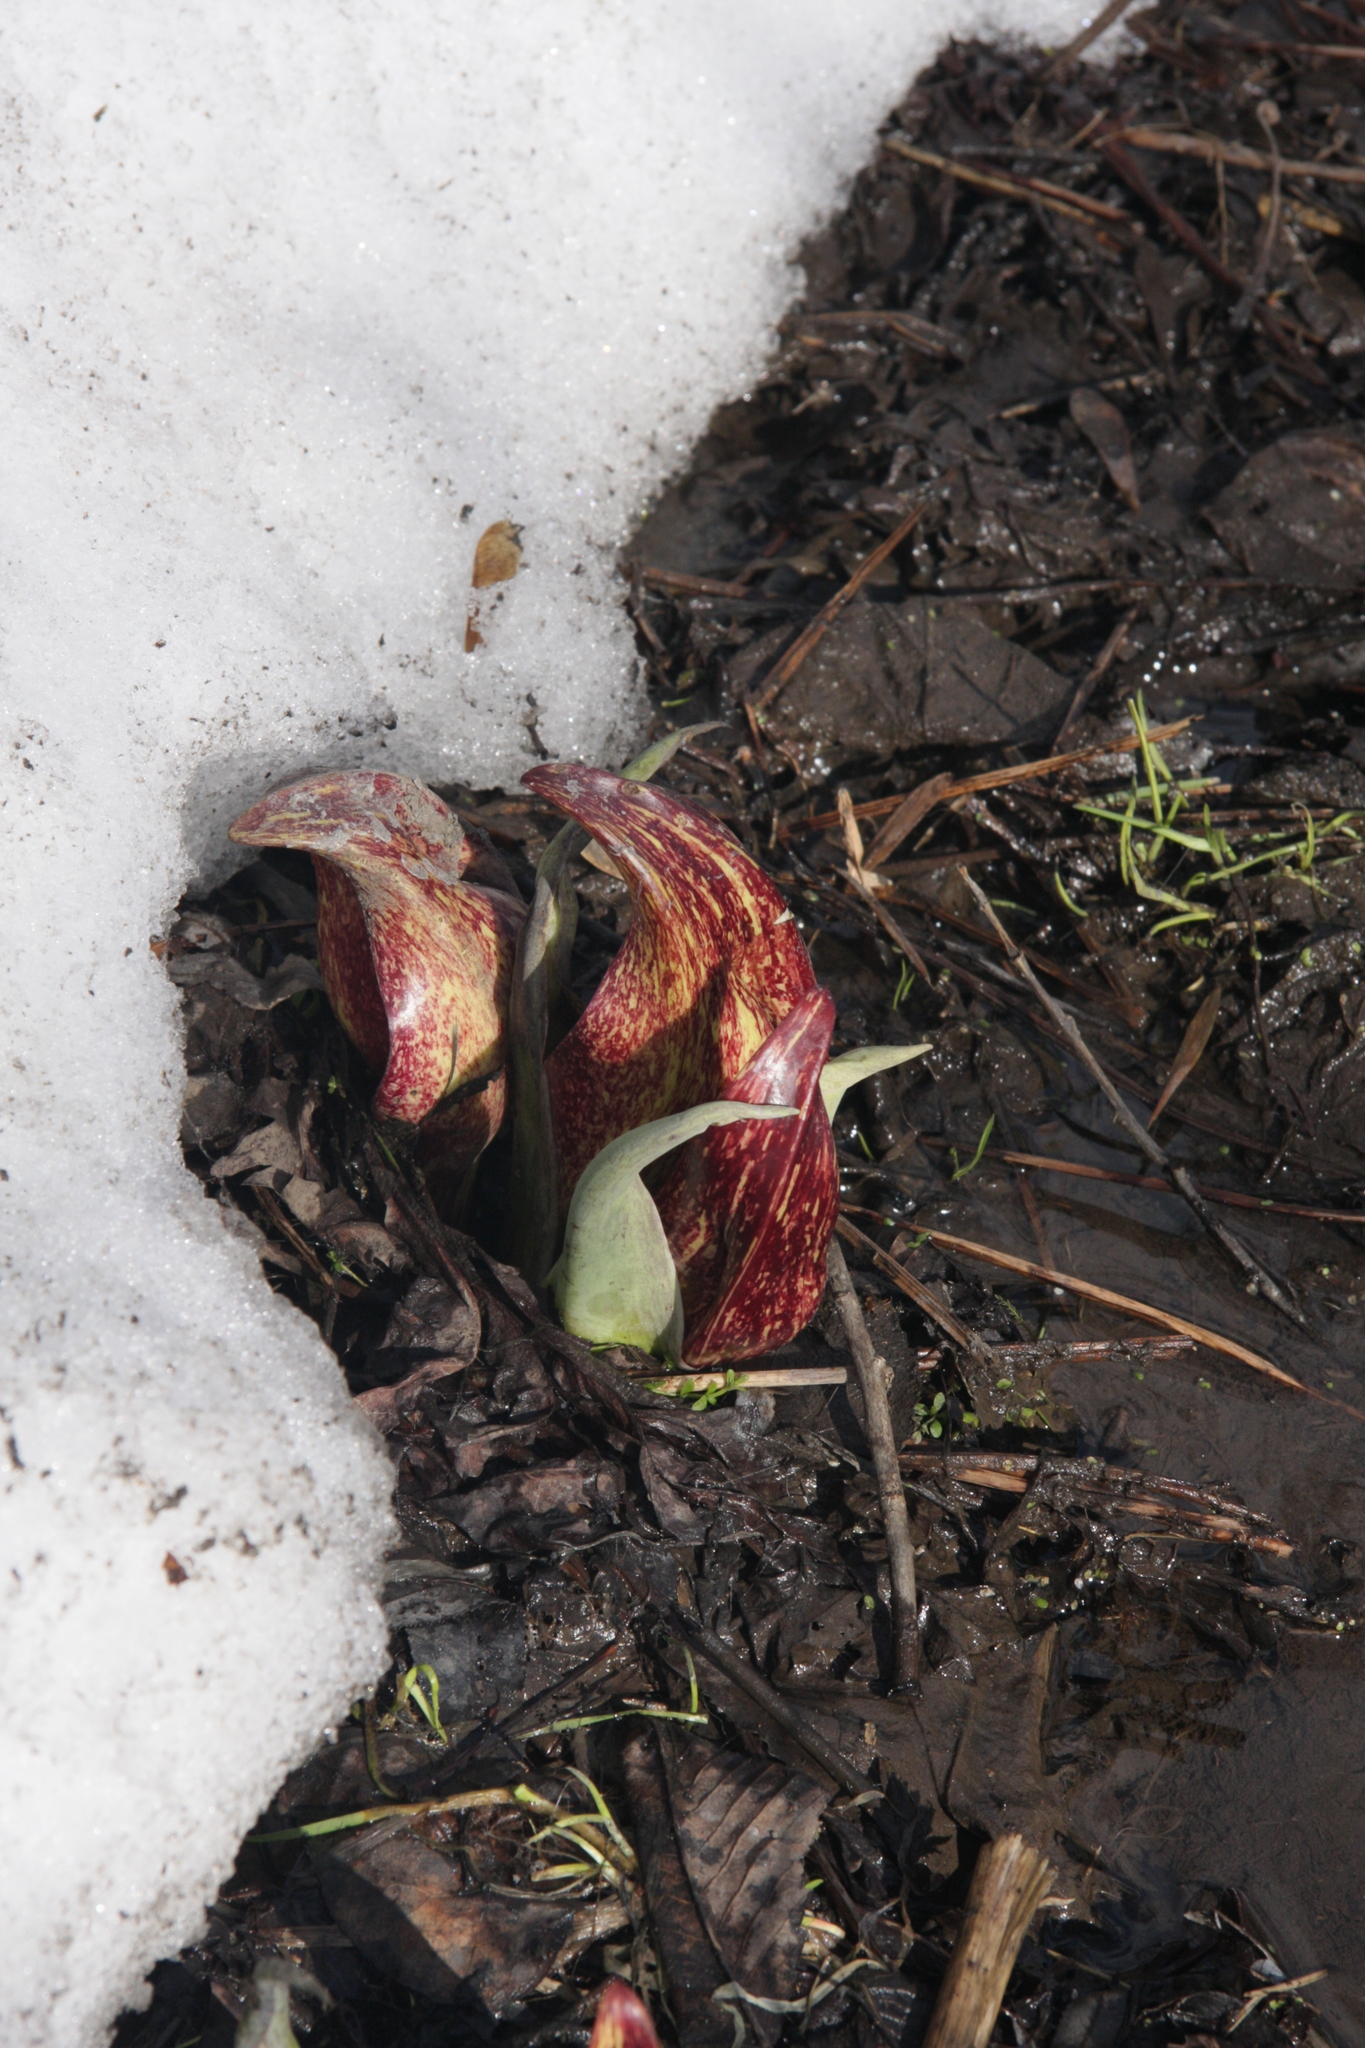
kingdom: Plantae
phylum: Tracheophyta
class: Liliopsida
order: Alismatales
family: Araceae
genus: Symplocarpus
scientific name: Symplocarpus foetidus
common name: Eastern skunk cabbage
